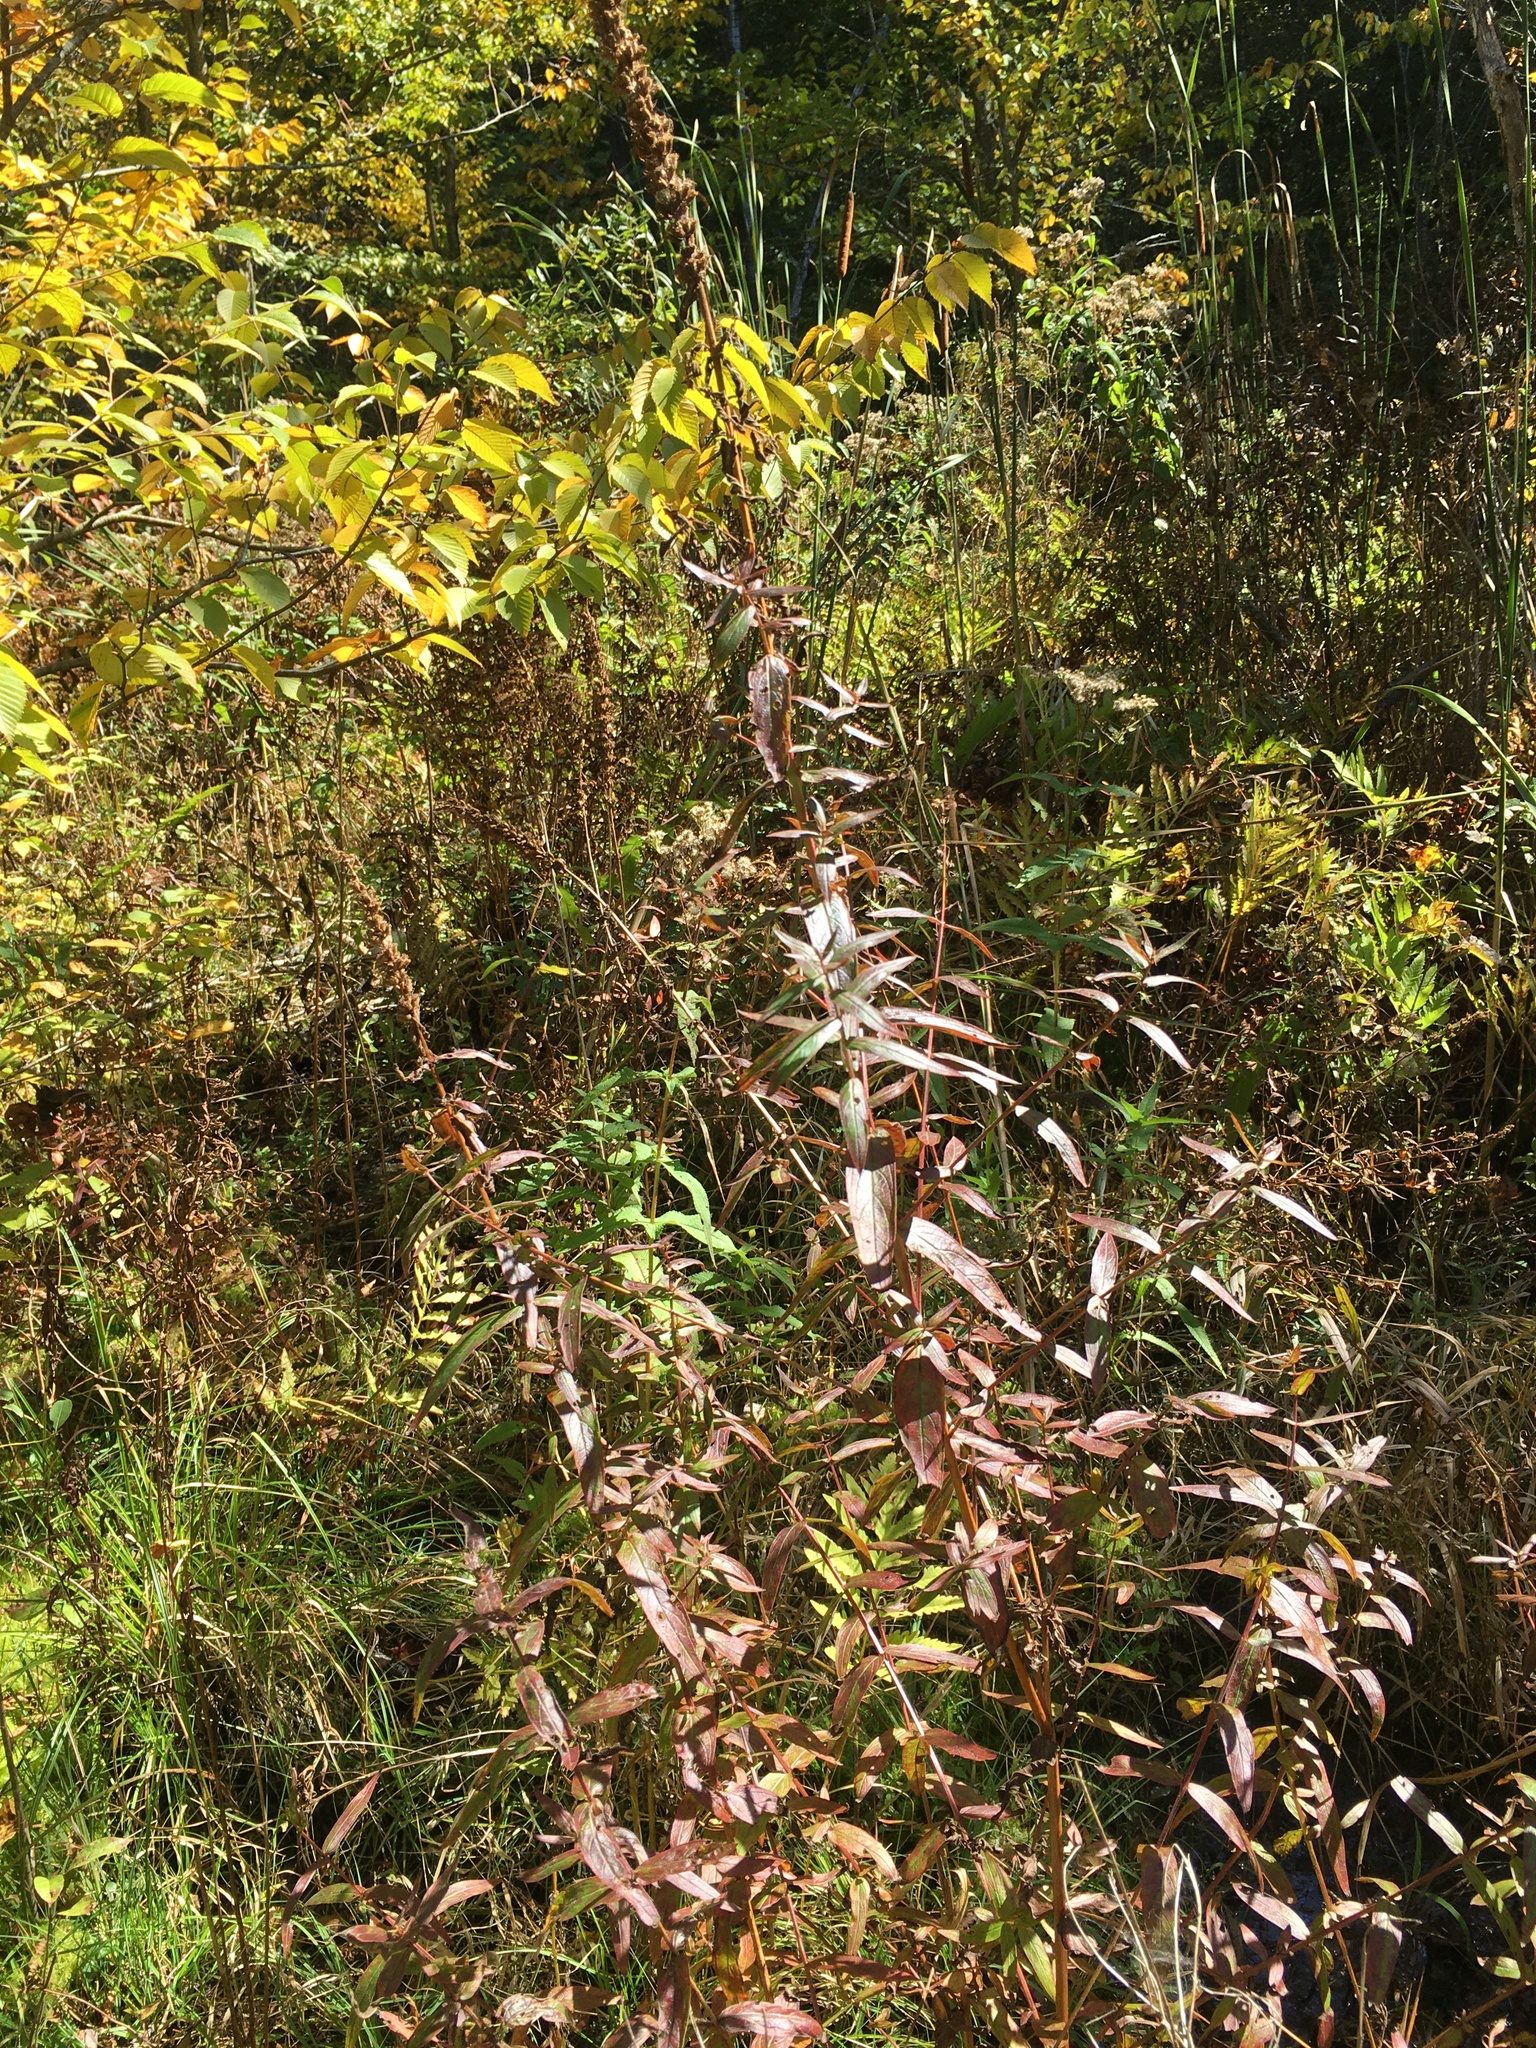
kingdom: Plantae
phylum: Tracheophyta
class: Magnoliopsida
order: Myrtales
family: Lythraceae
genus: Lythrum
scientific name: Lythrum salicaria
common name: Purple loosestrife
